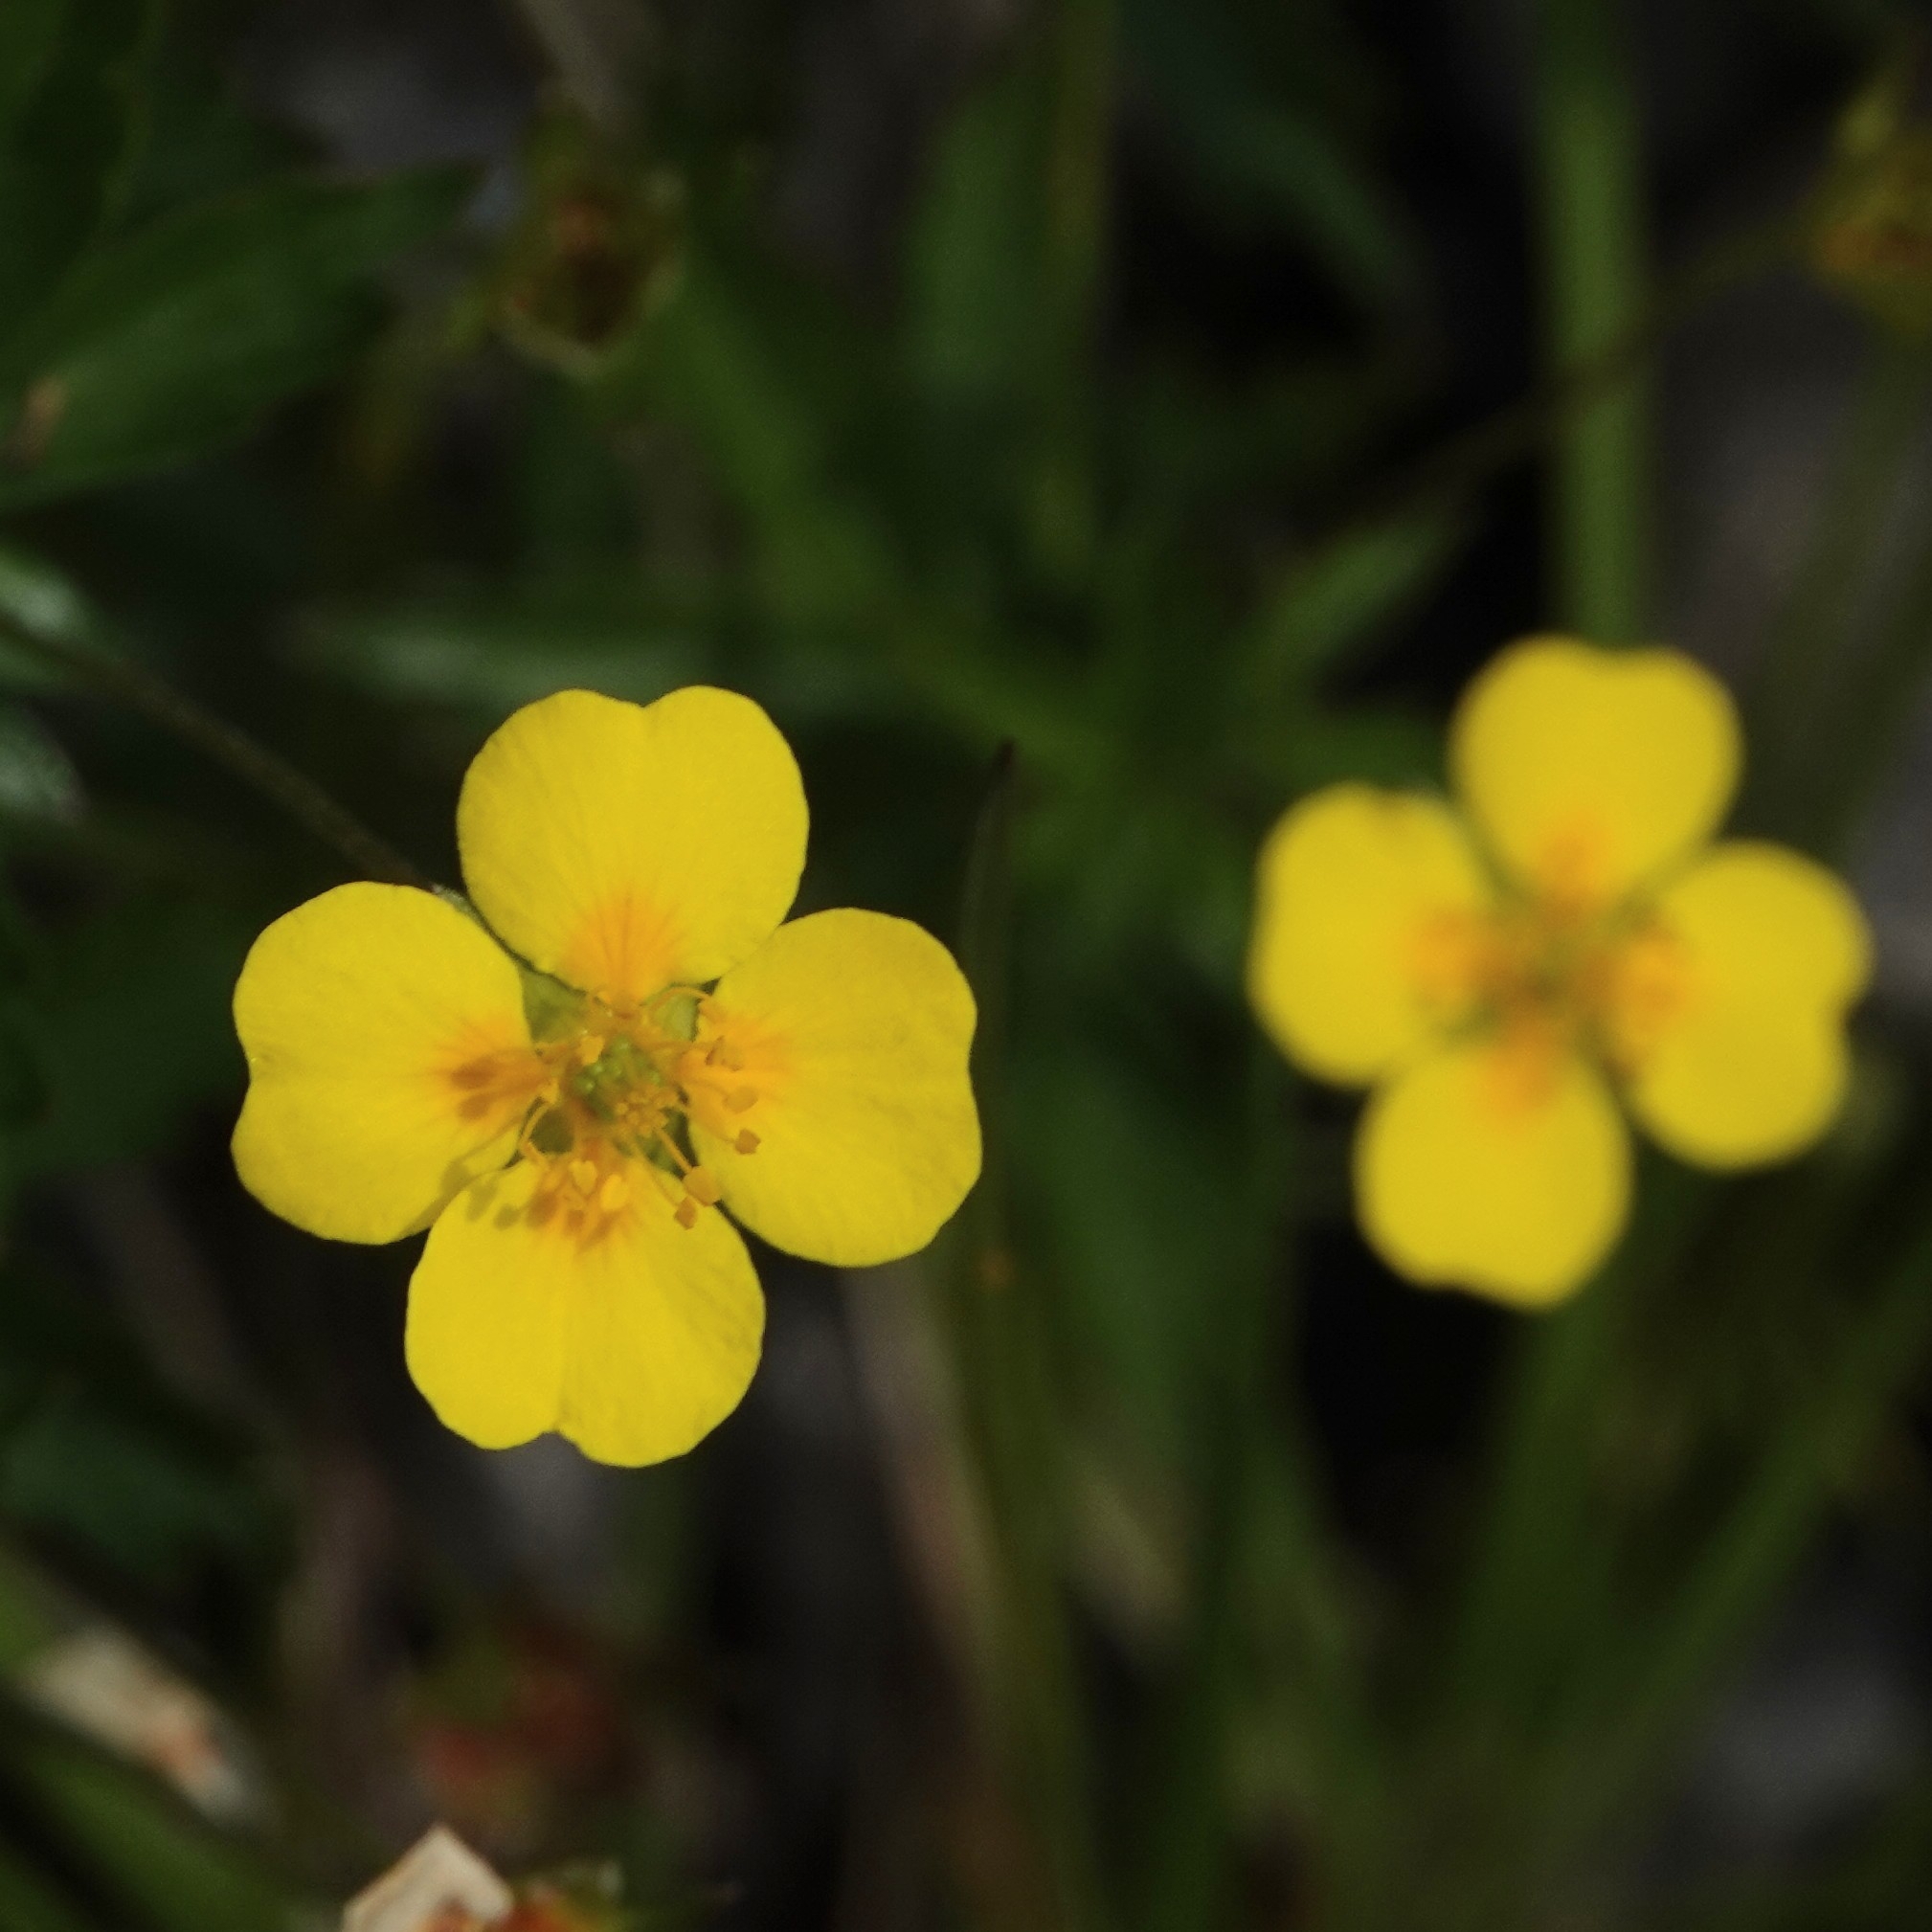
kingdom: Plantae
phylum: Tracheophyta
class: Magnoliopsida
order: Rosales
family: Rosaceae
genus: Potentilla
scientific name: Potentilla erecta
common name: Tormentil
